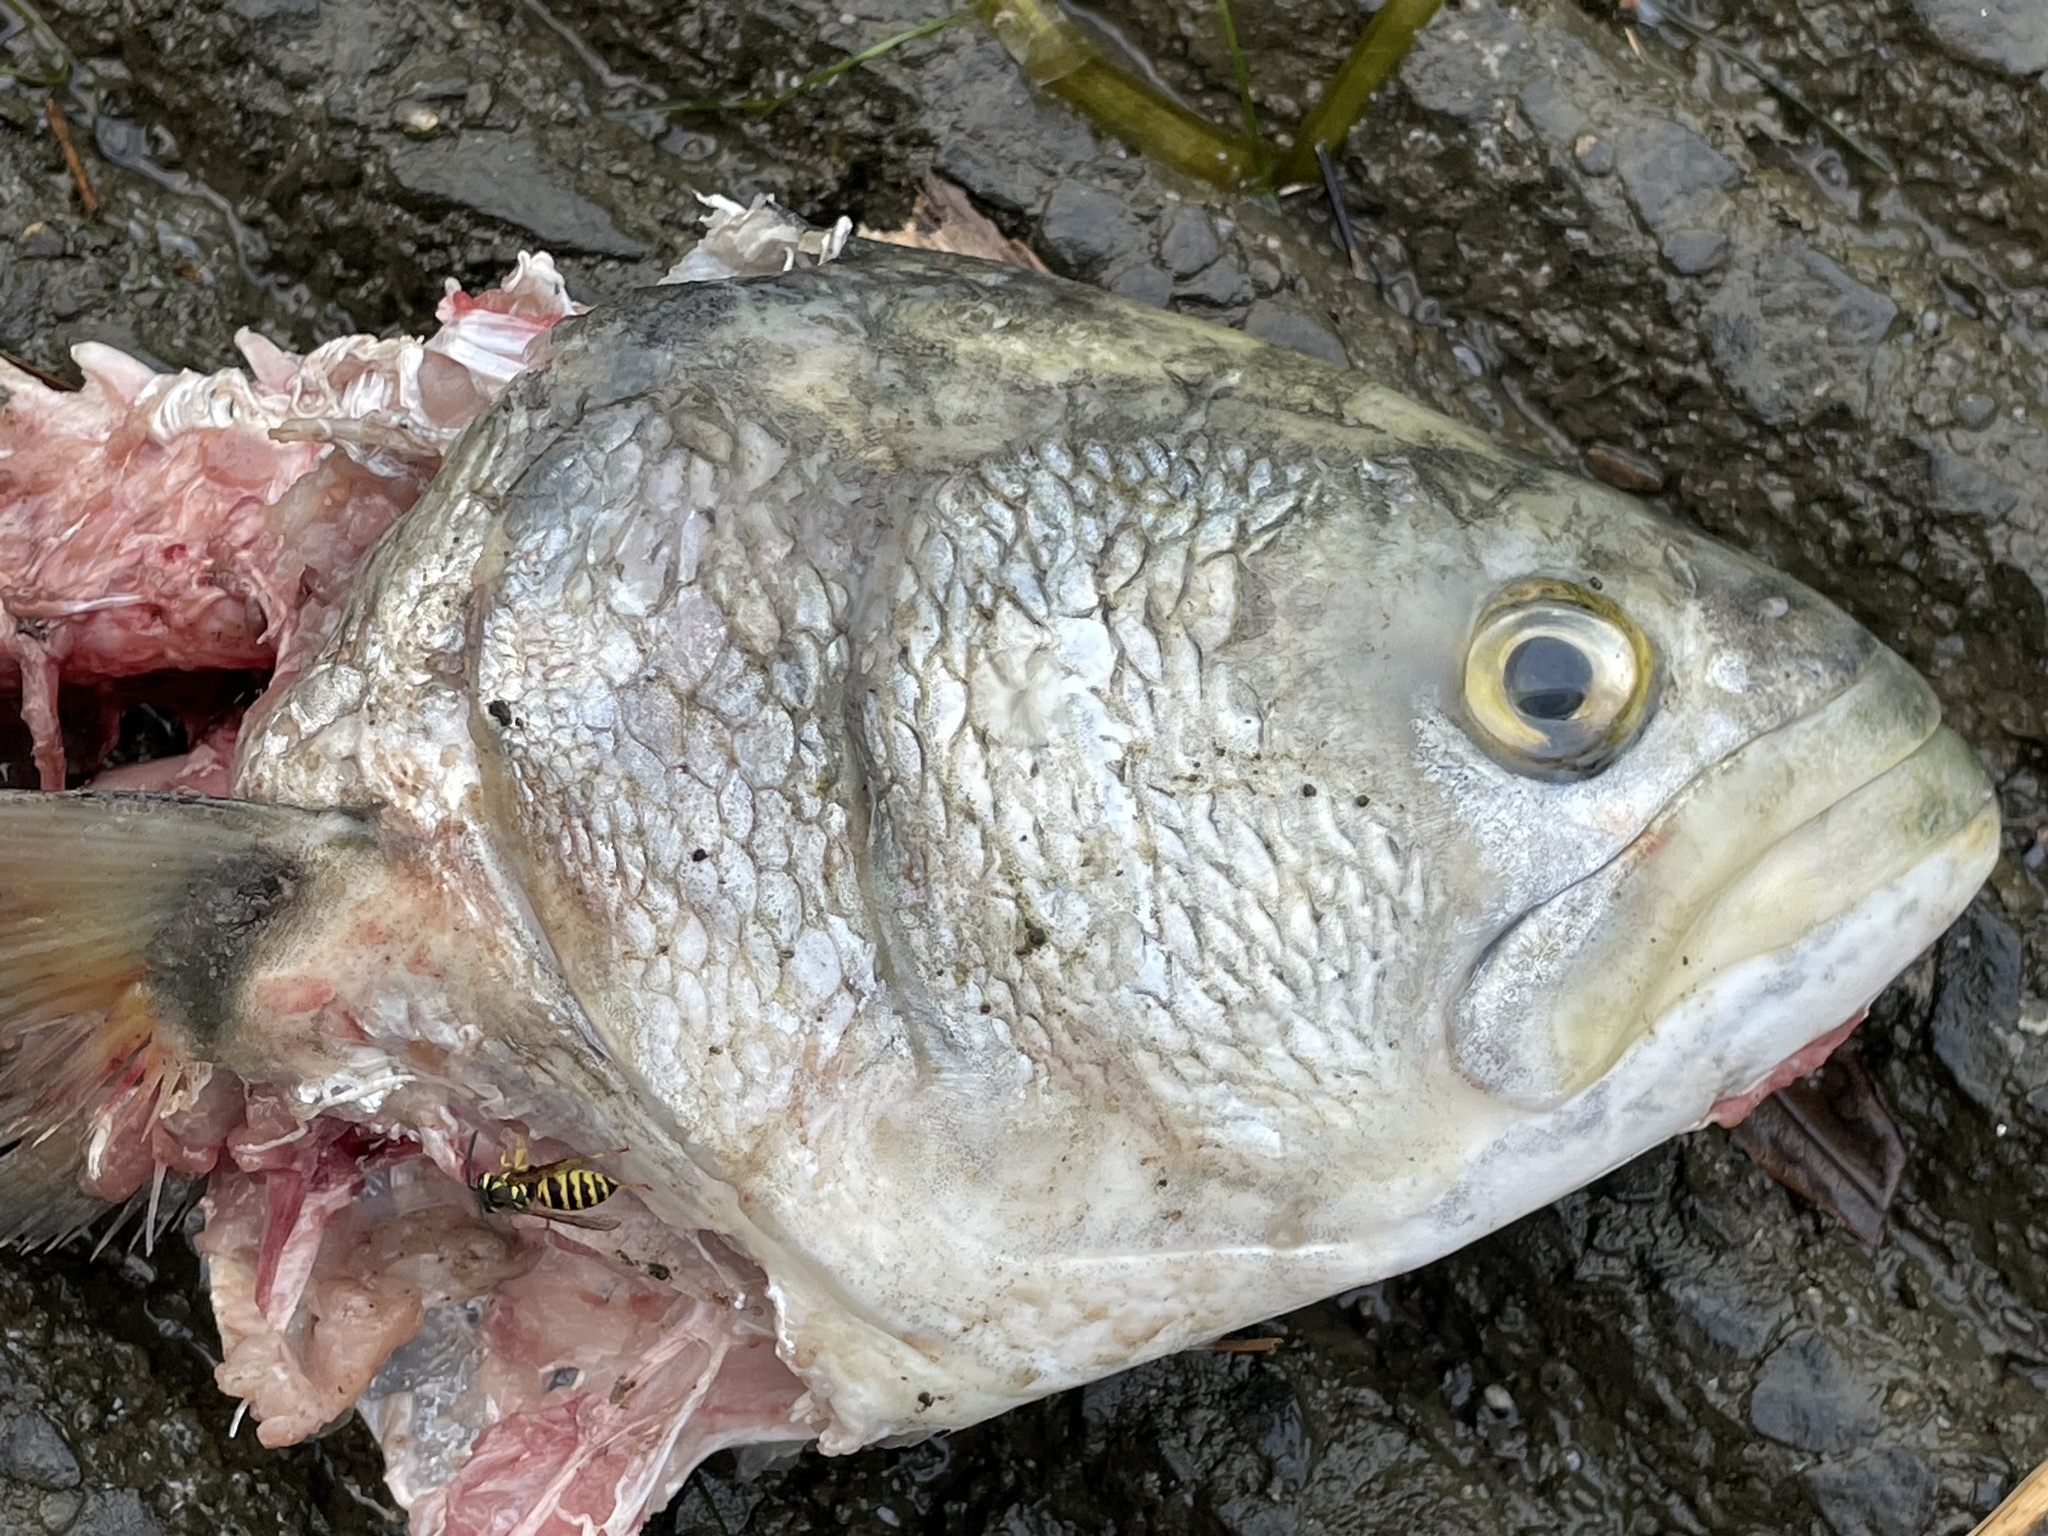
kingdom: Animalia
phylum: Chordata
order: Perciformes
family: Pomatomidae
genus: Pomatomus
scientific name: Pomatomus saltatrix
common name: Bluefish
